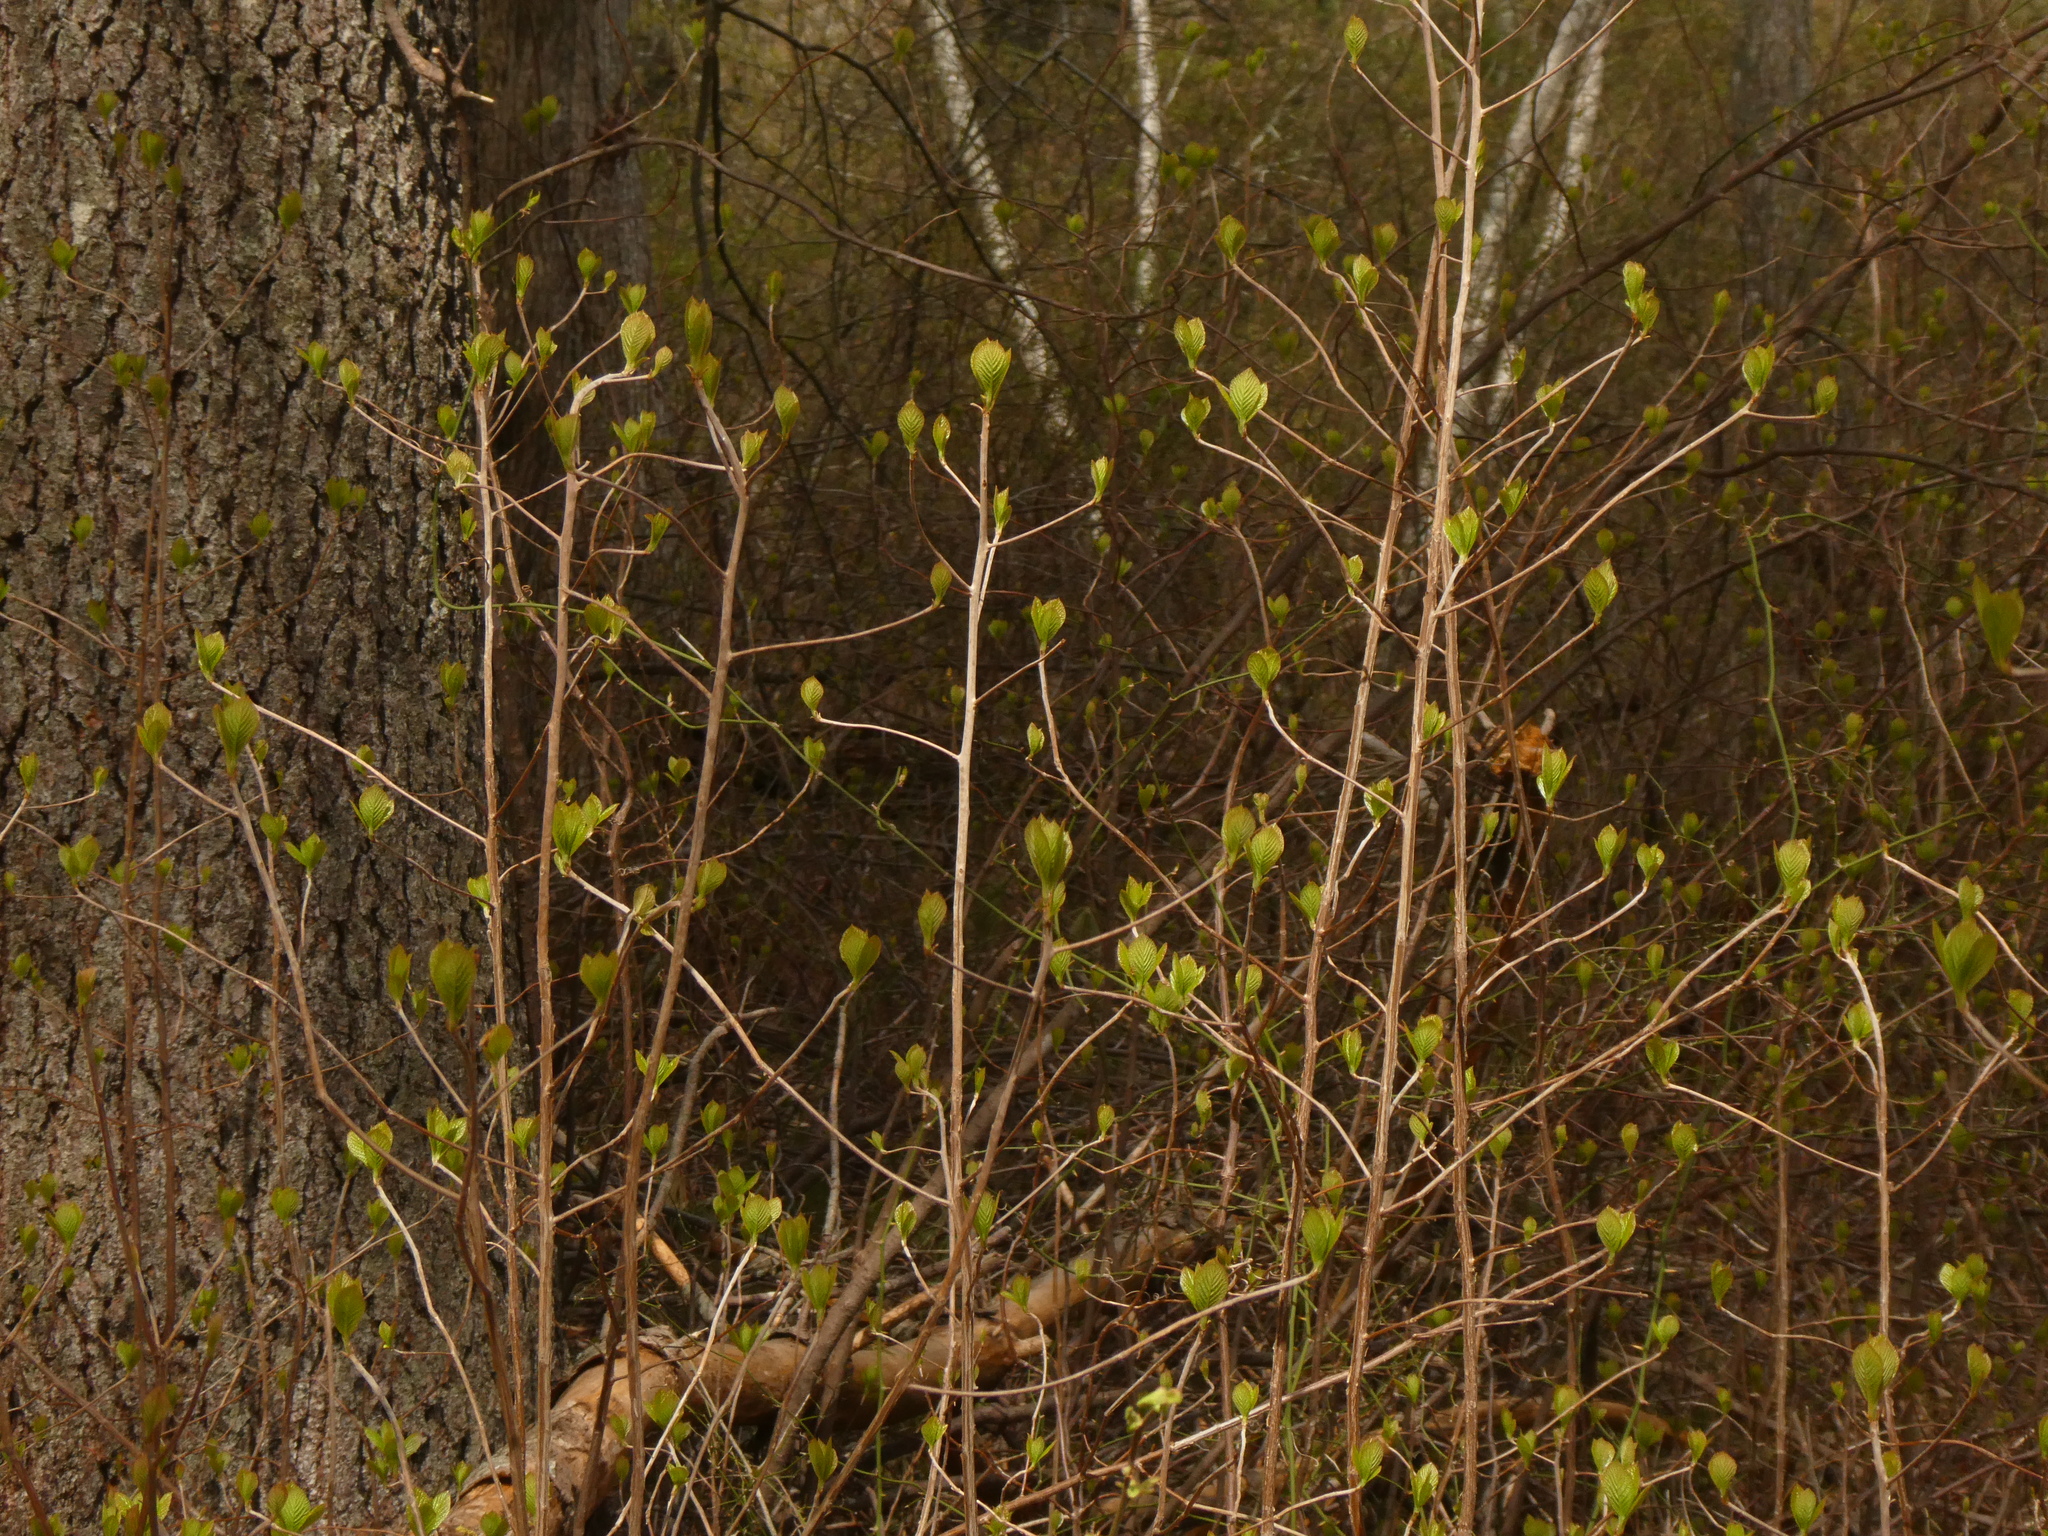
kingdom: Plantae
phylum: Tracheophyta
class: Magnoliopsida
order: Ericales
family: Clethraceae
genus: Clethra
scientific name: Clethra alnifolia
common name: Sweet pepperbush
